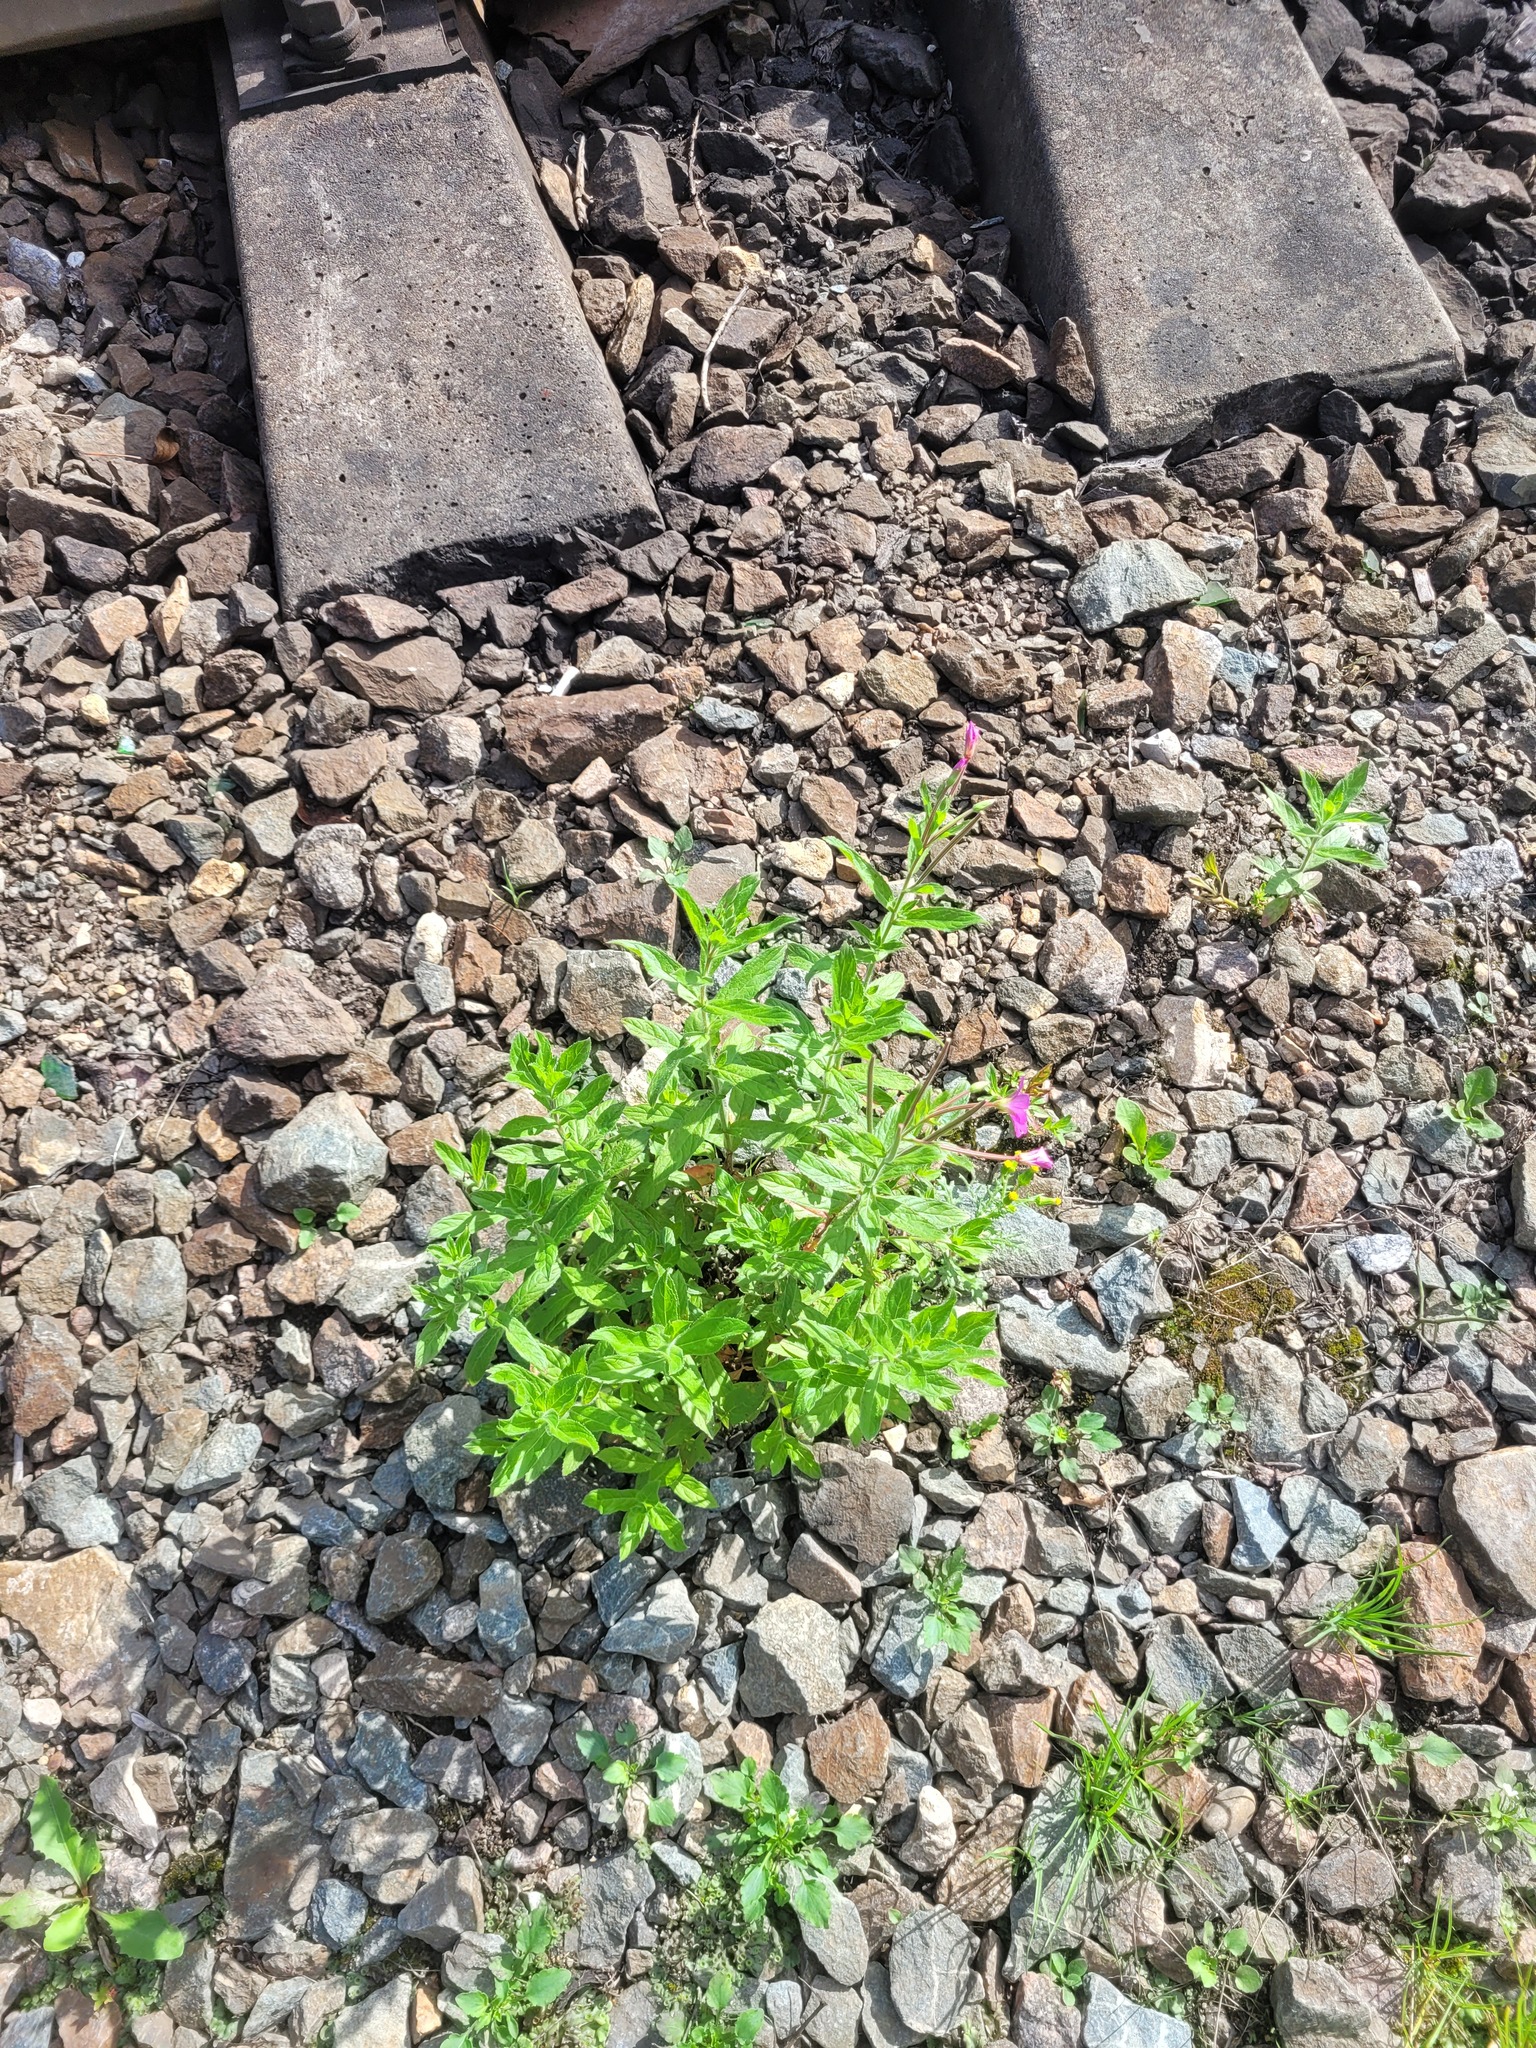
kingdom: Plantae
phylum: Tracheophyta
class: Magnoliopsida
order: Myrtales
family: Onagraceae
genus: Epilobium
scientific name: Epilobium hirsutum
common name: Great willowherb
